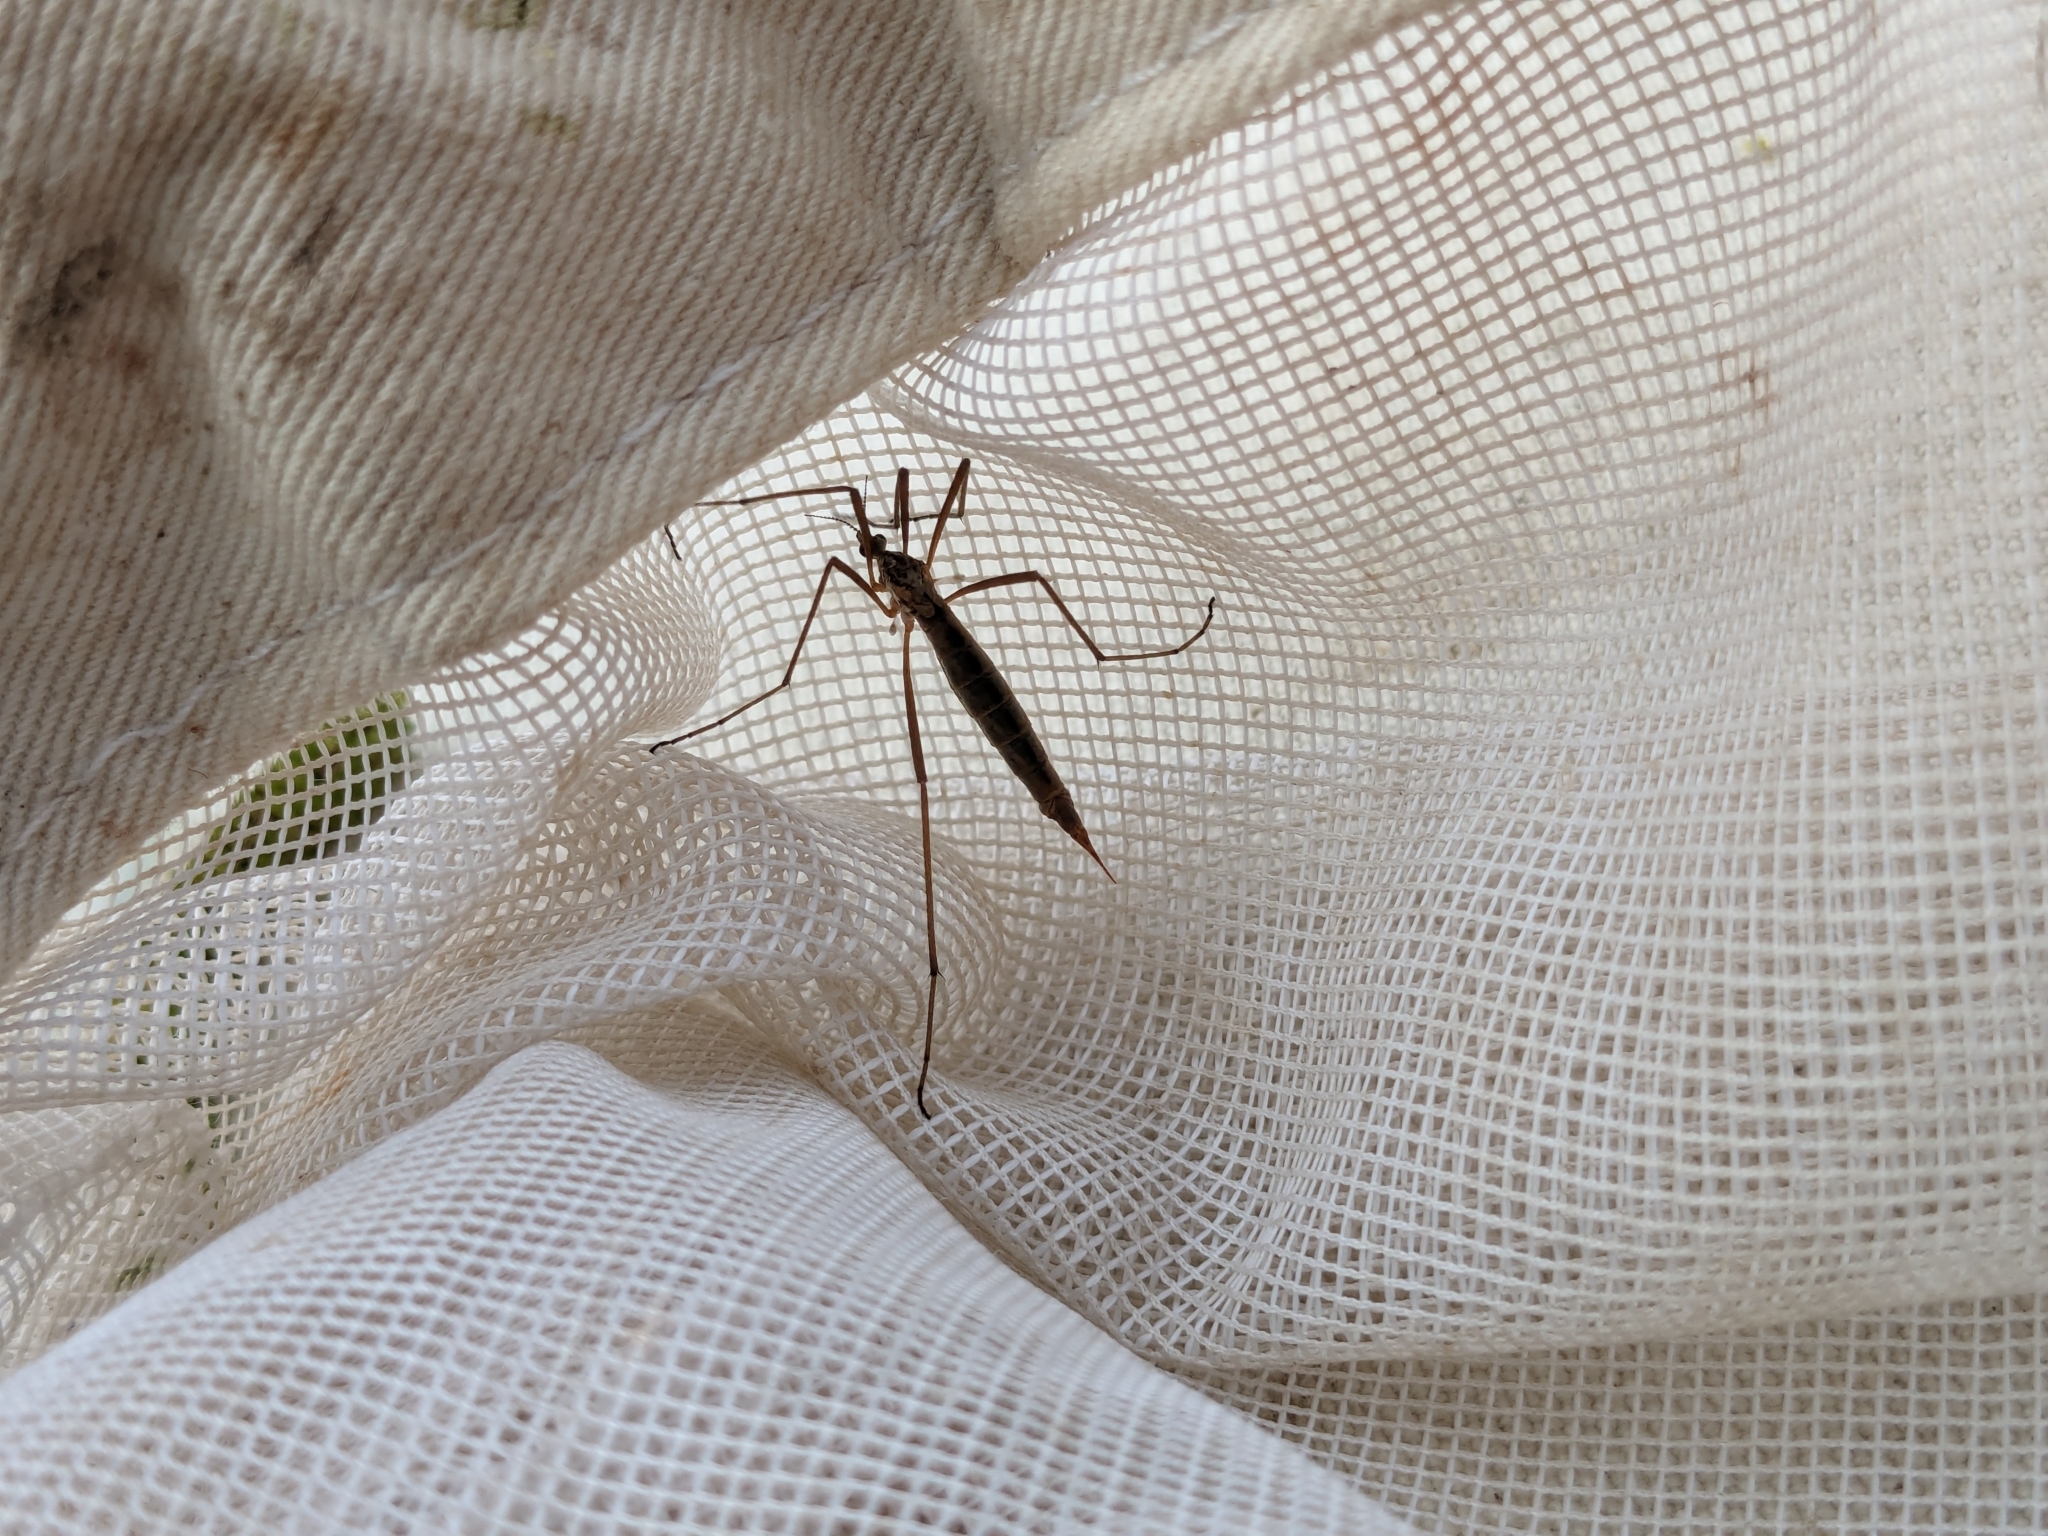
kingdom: Animalia
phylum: Arthropoda
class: Insecta
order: Diptera
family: Limoniidae
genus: Gynoplistia
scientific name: Gynoplistia pedestris
